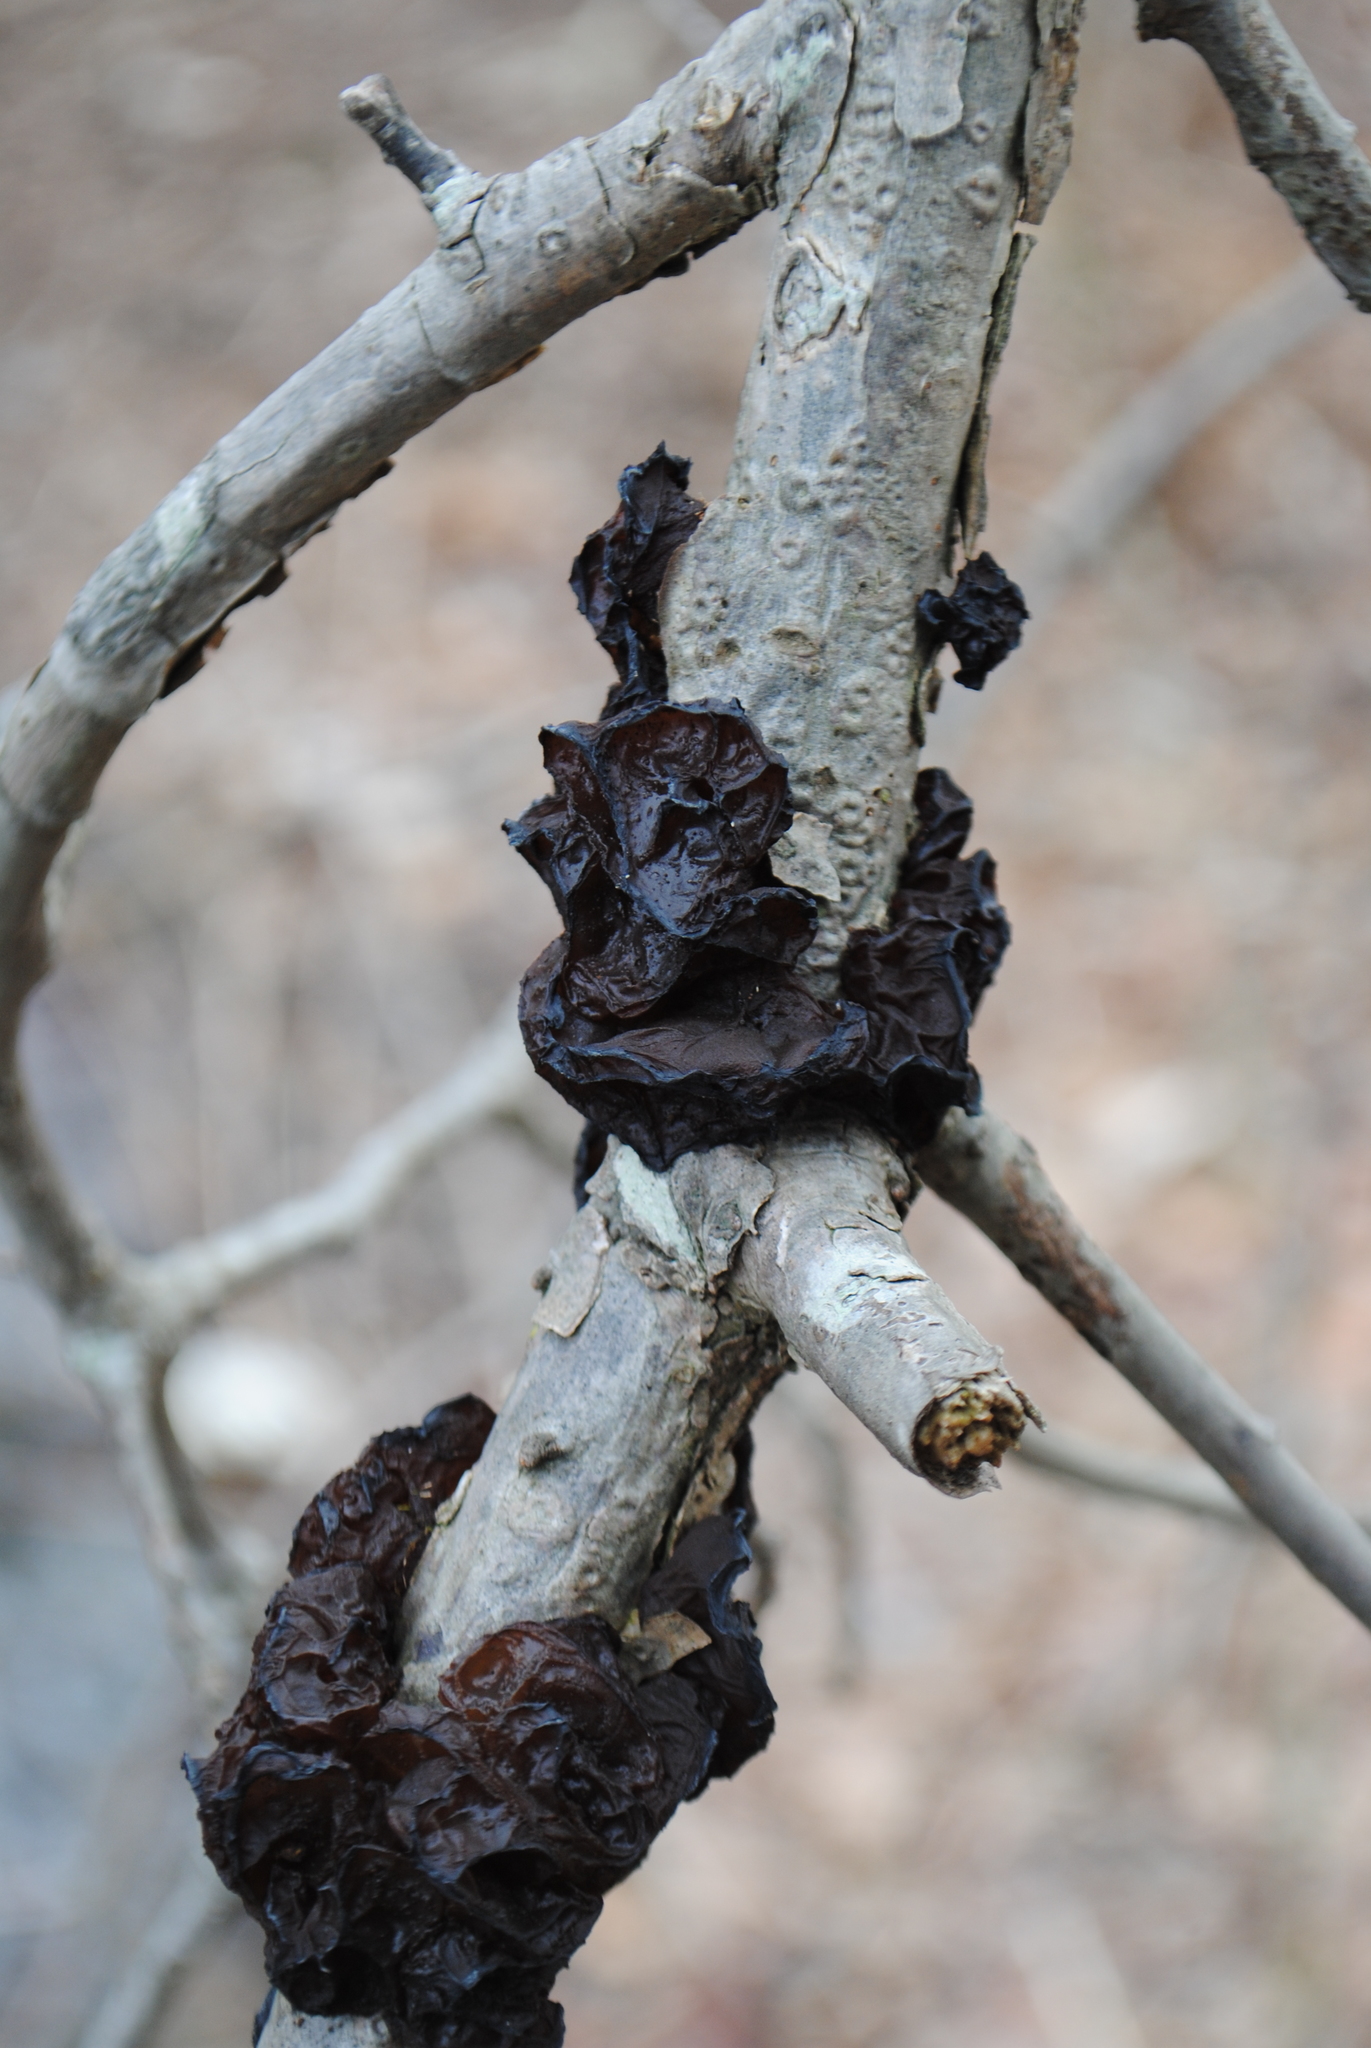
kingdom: Fungi
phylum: Basidiomycota
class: Agaricomycetes
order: Auriculariales
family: Auriculariaceae
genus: Exidia
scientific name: Exidia
